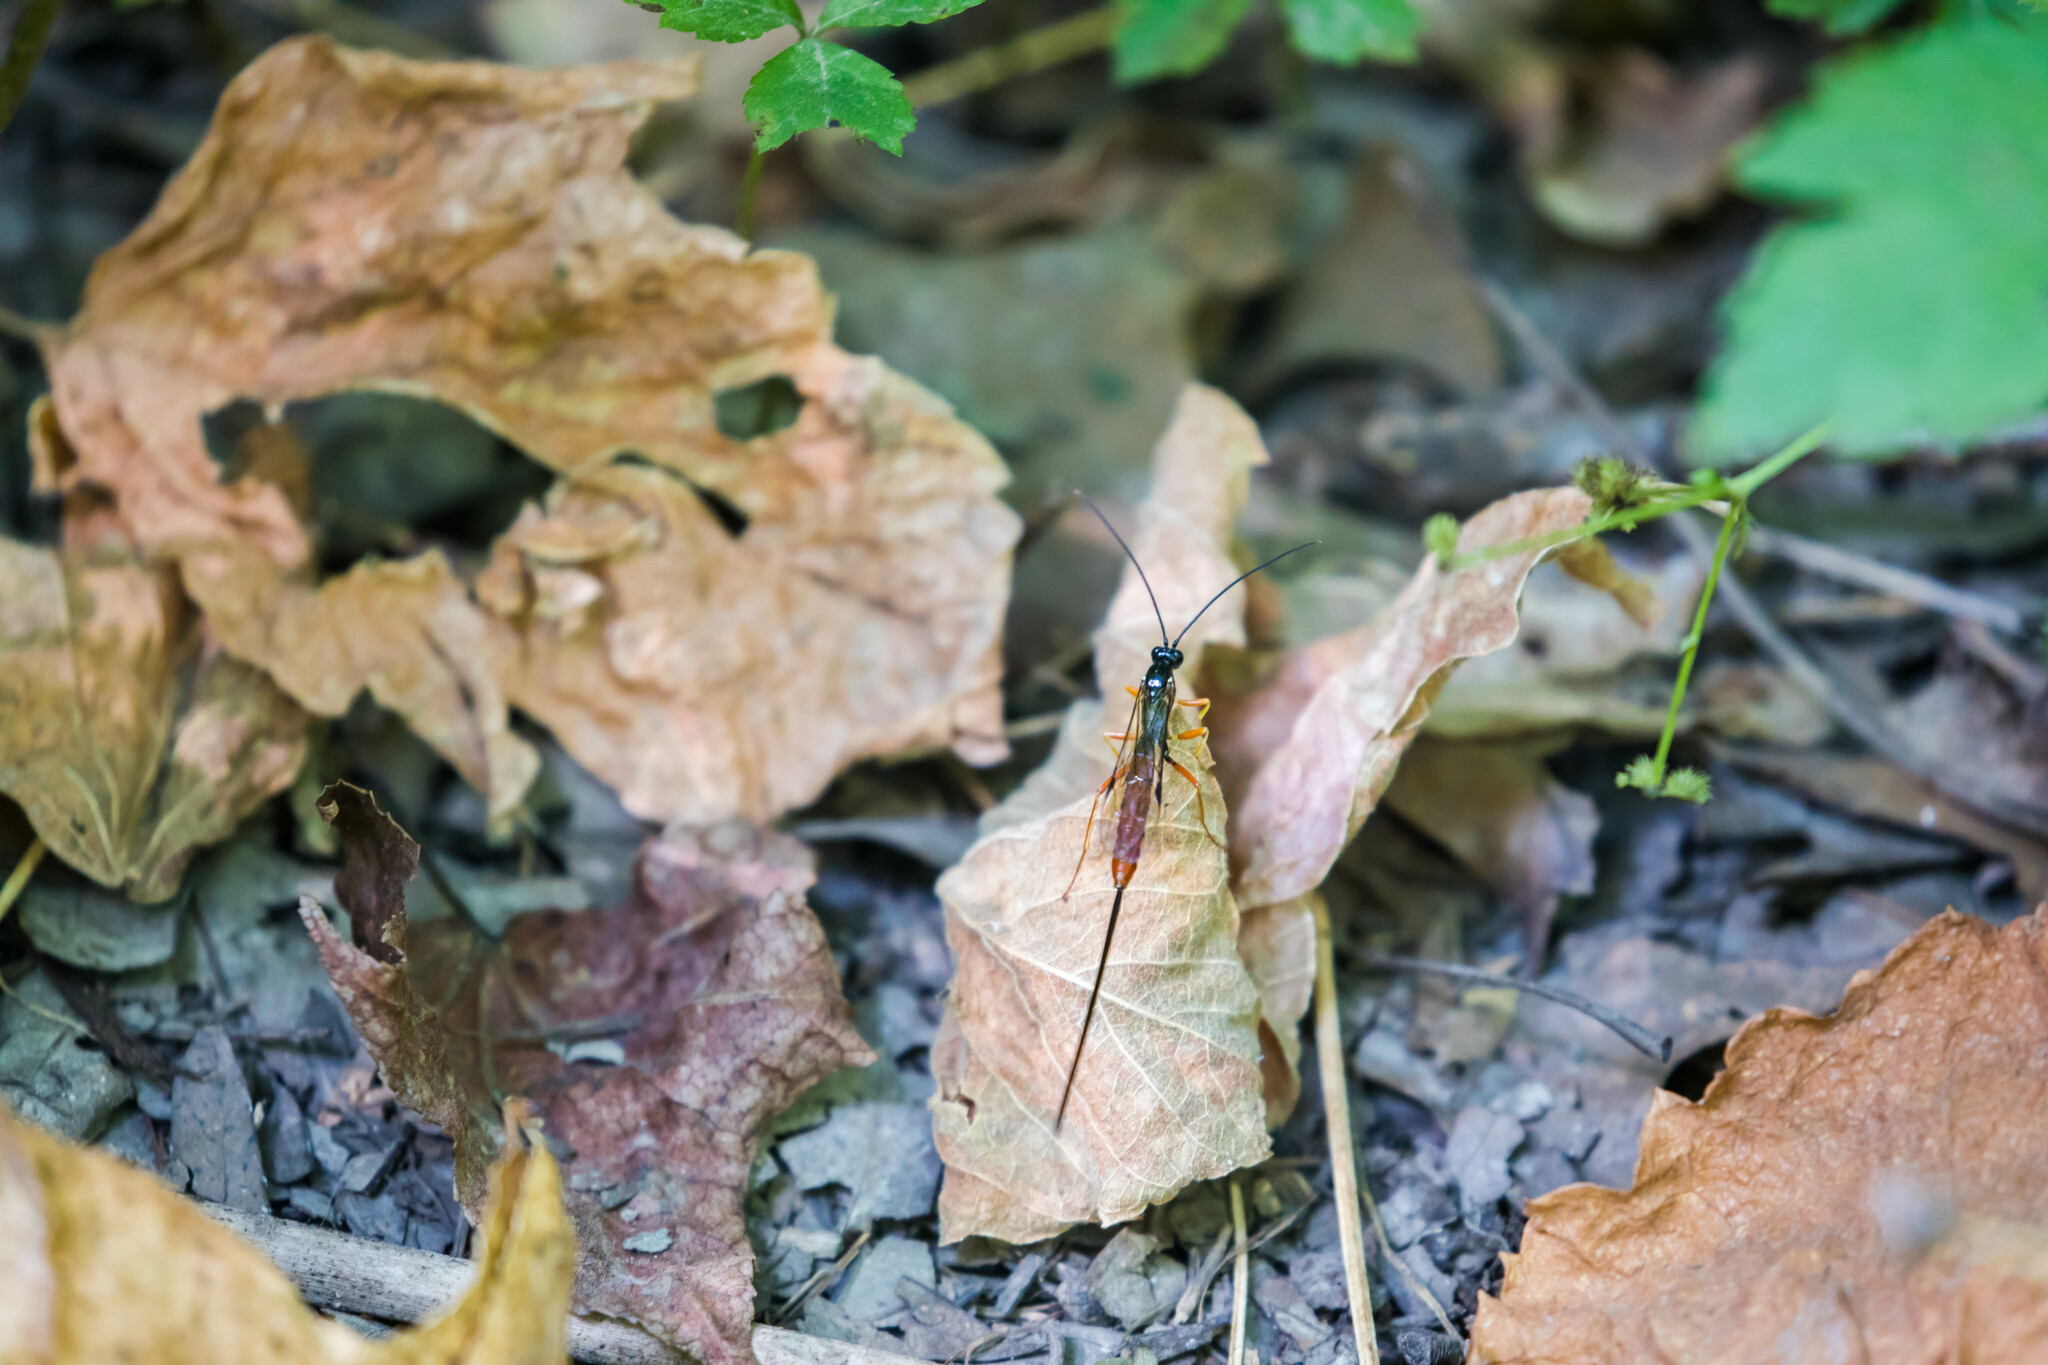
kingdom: Animalia
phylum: Arthropoda
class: Insecta
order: Hymenoptera
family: Ichneumonidae
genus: Dolichomitus
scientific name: Dolichomitus irritator
